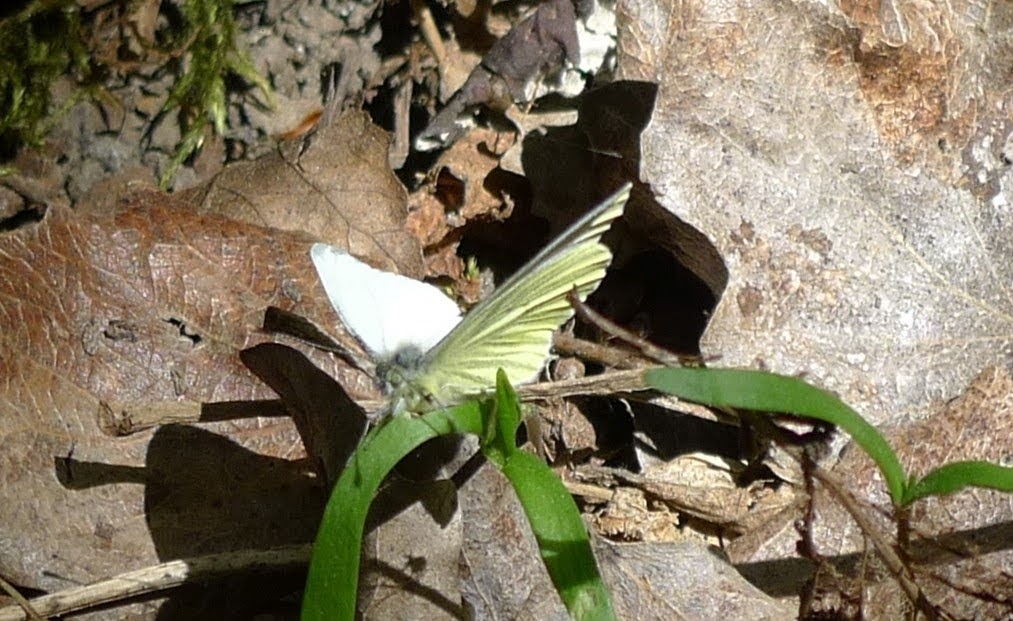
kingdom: Animalia
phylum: Arthropoda
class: Insecta
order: Lepidoptera
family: Pieridae
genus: Pieris
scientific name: Pieris napi
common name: Green-veined white
